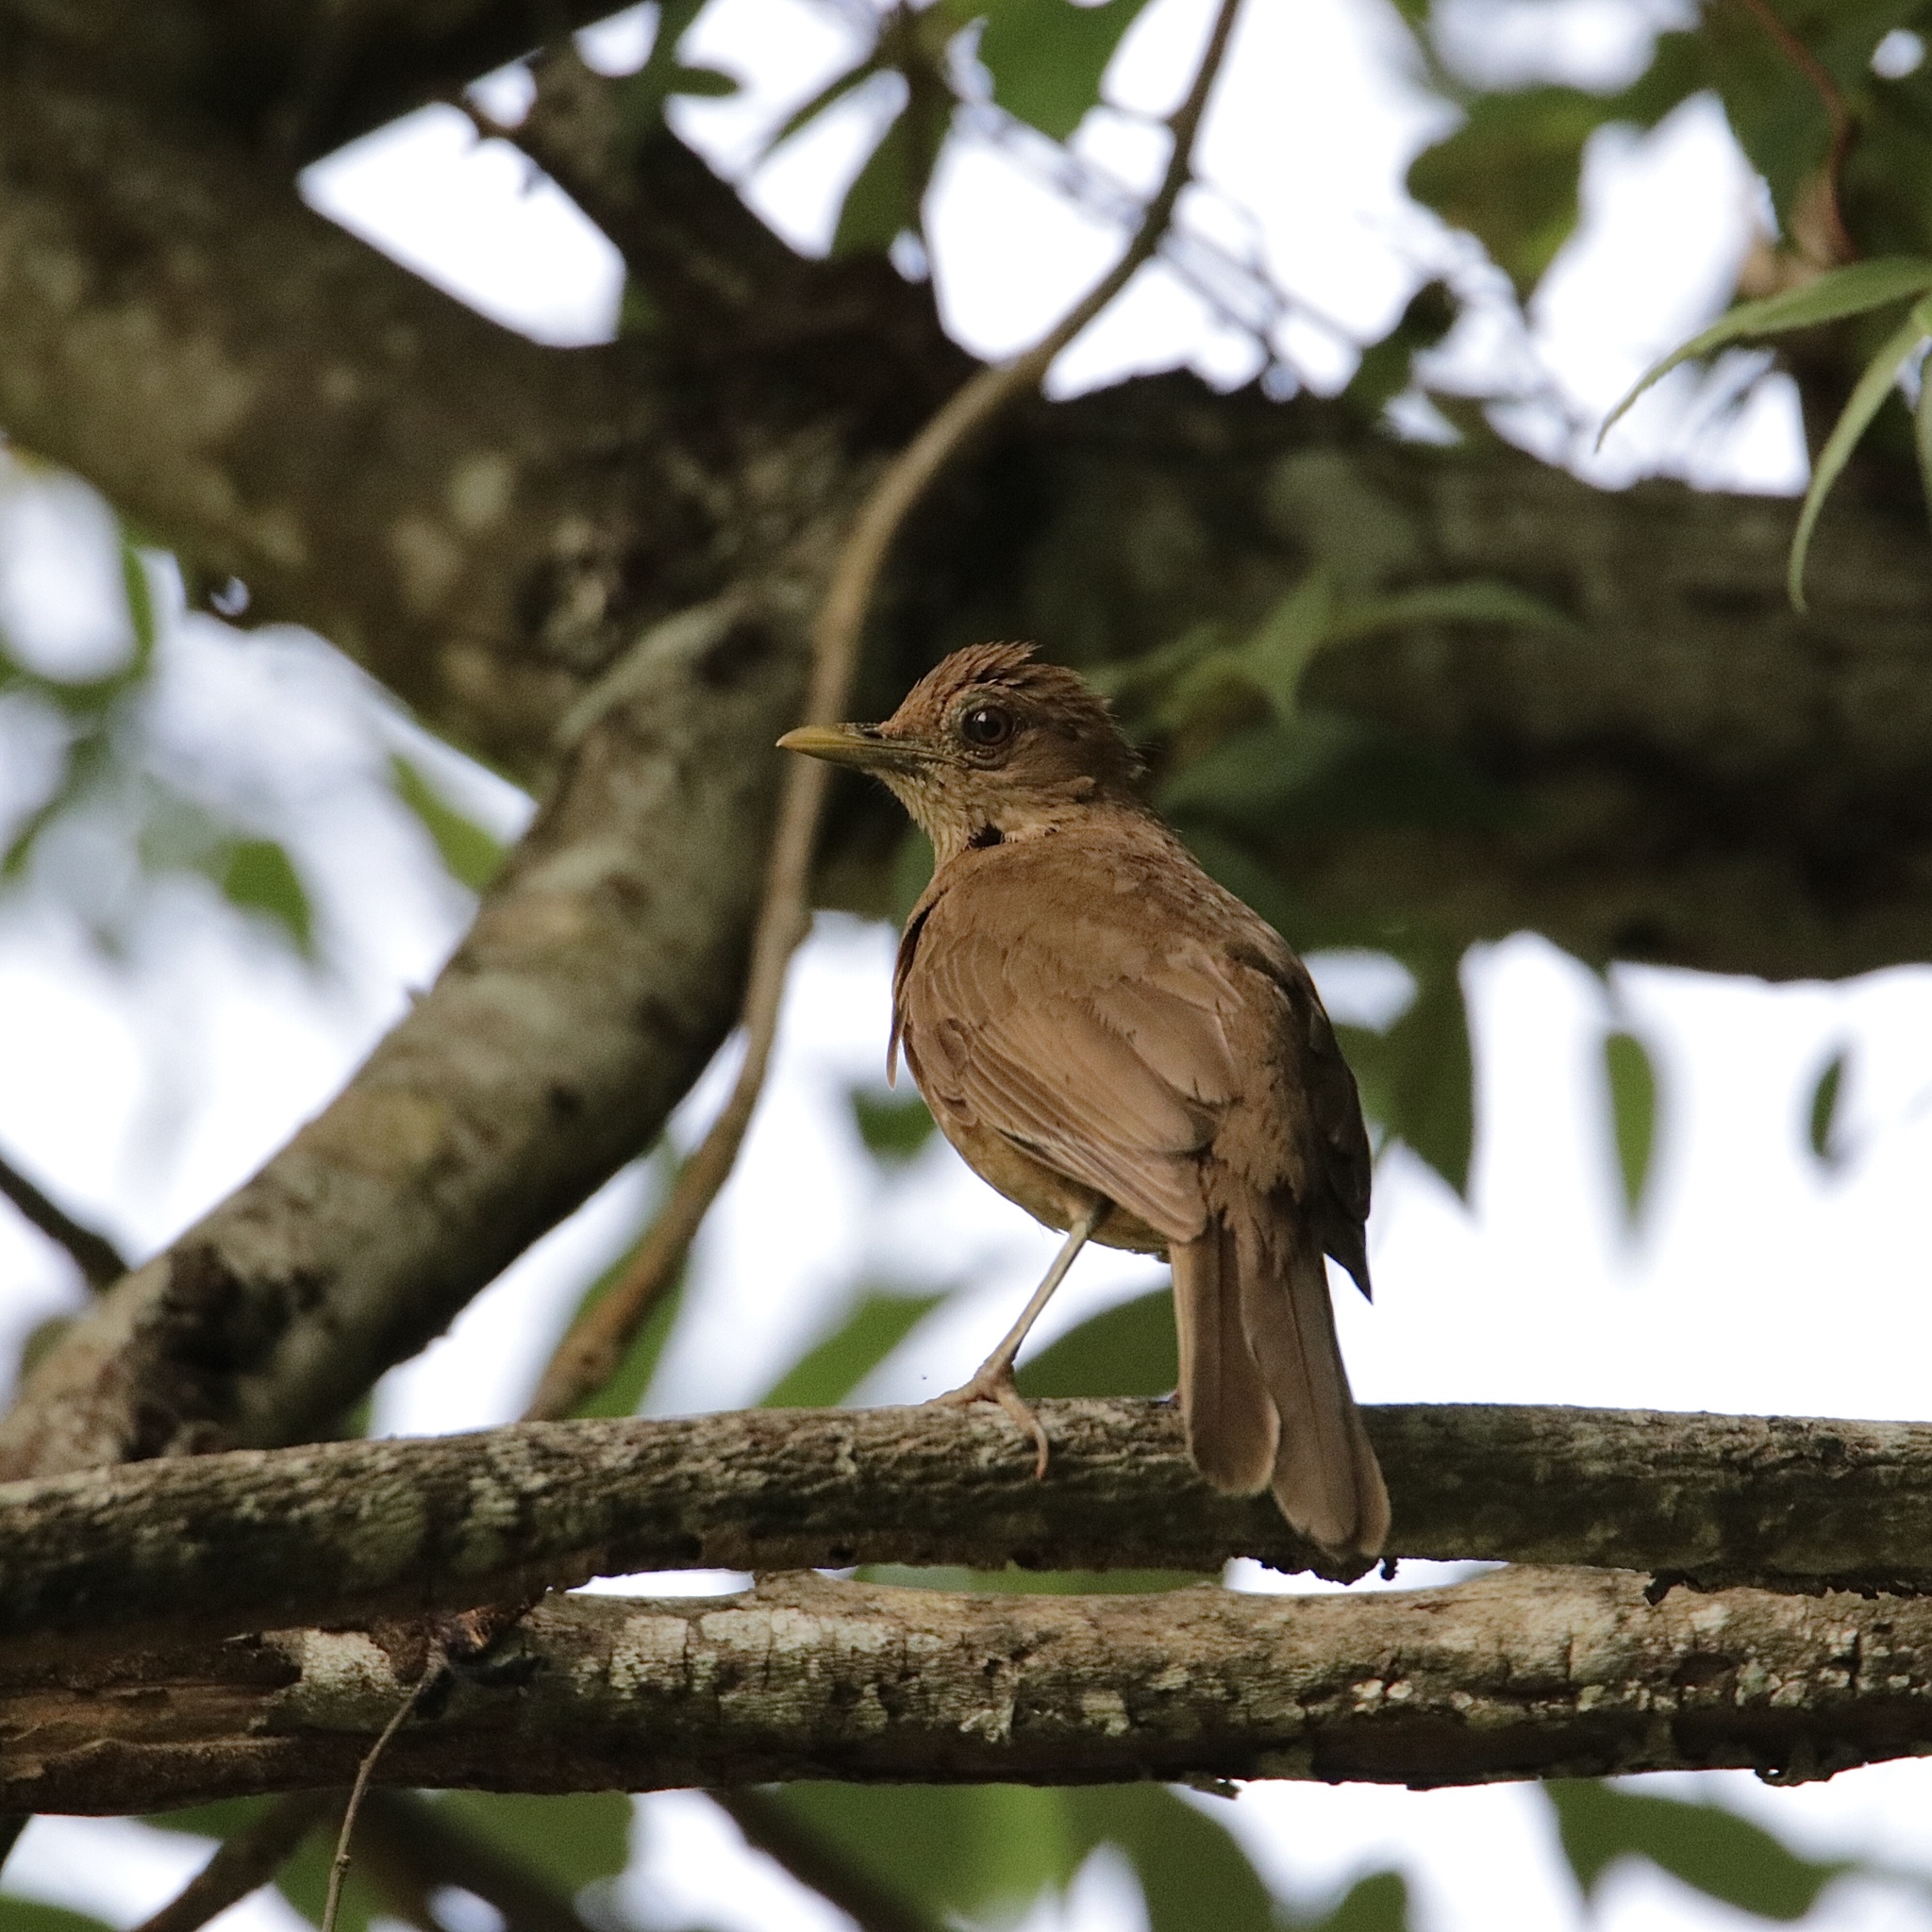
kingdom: Animalia
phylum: Chordata
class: Aves
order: Passeriformes
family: Turdidae
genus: Turdus
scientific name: Turdus grayi
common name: Clay-colored thrush
